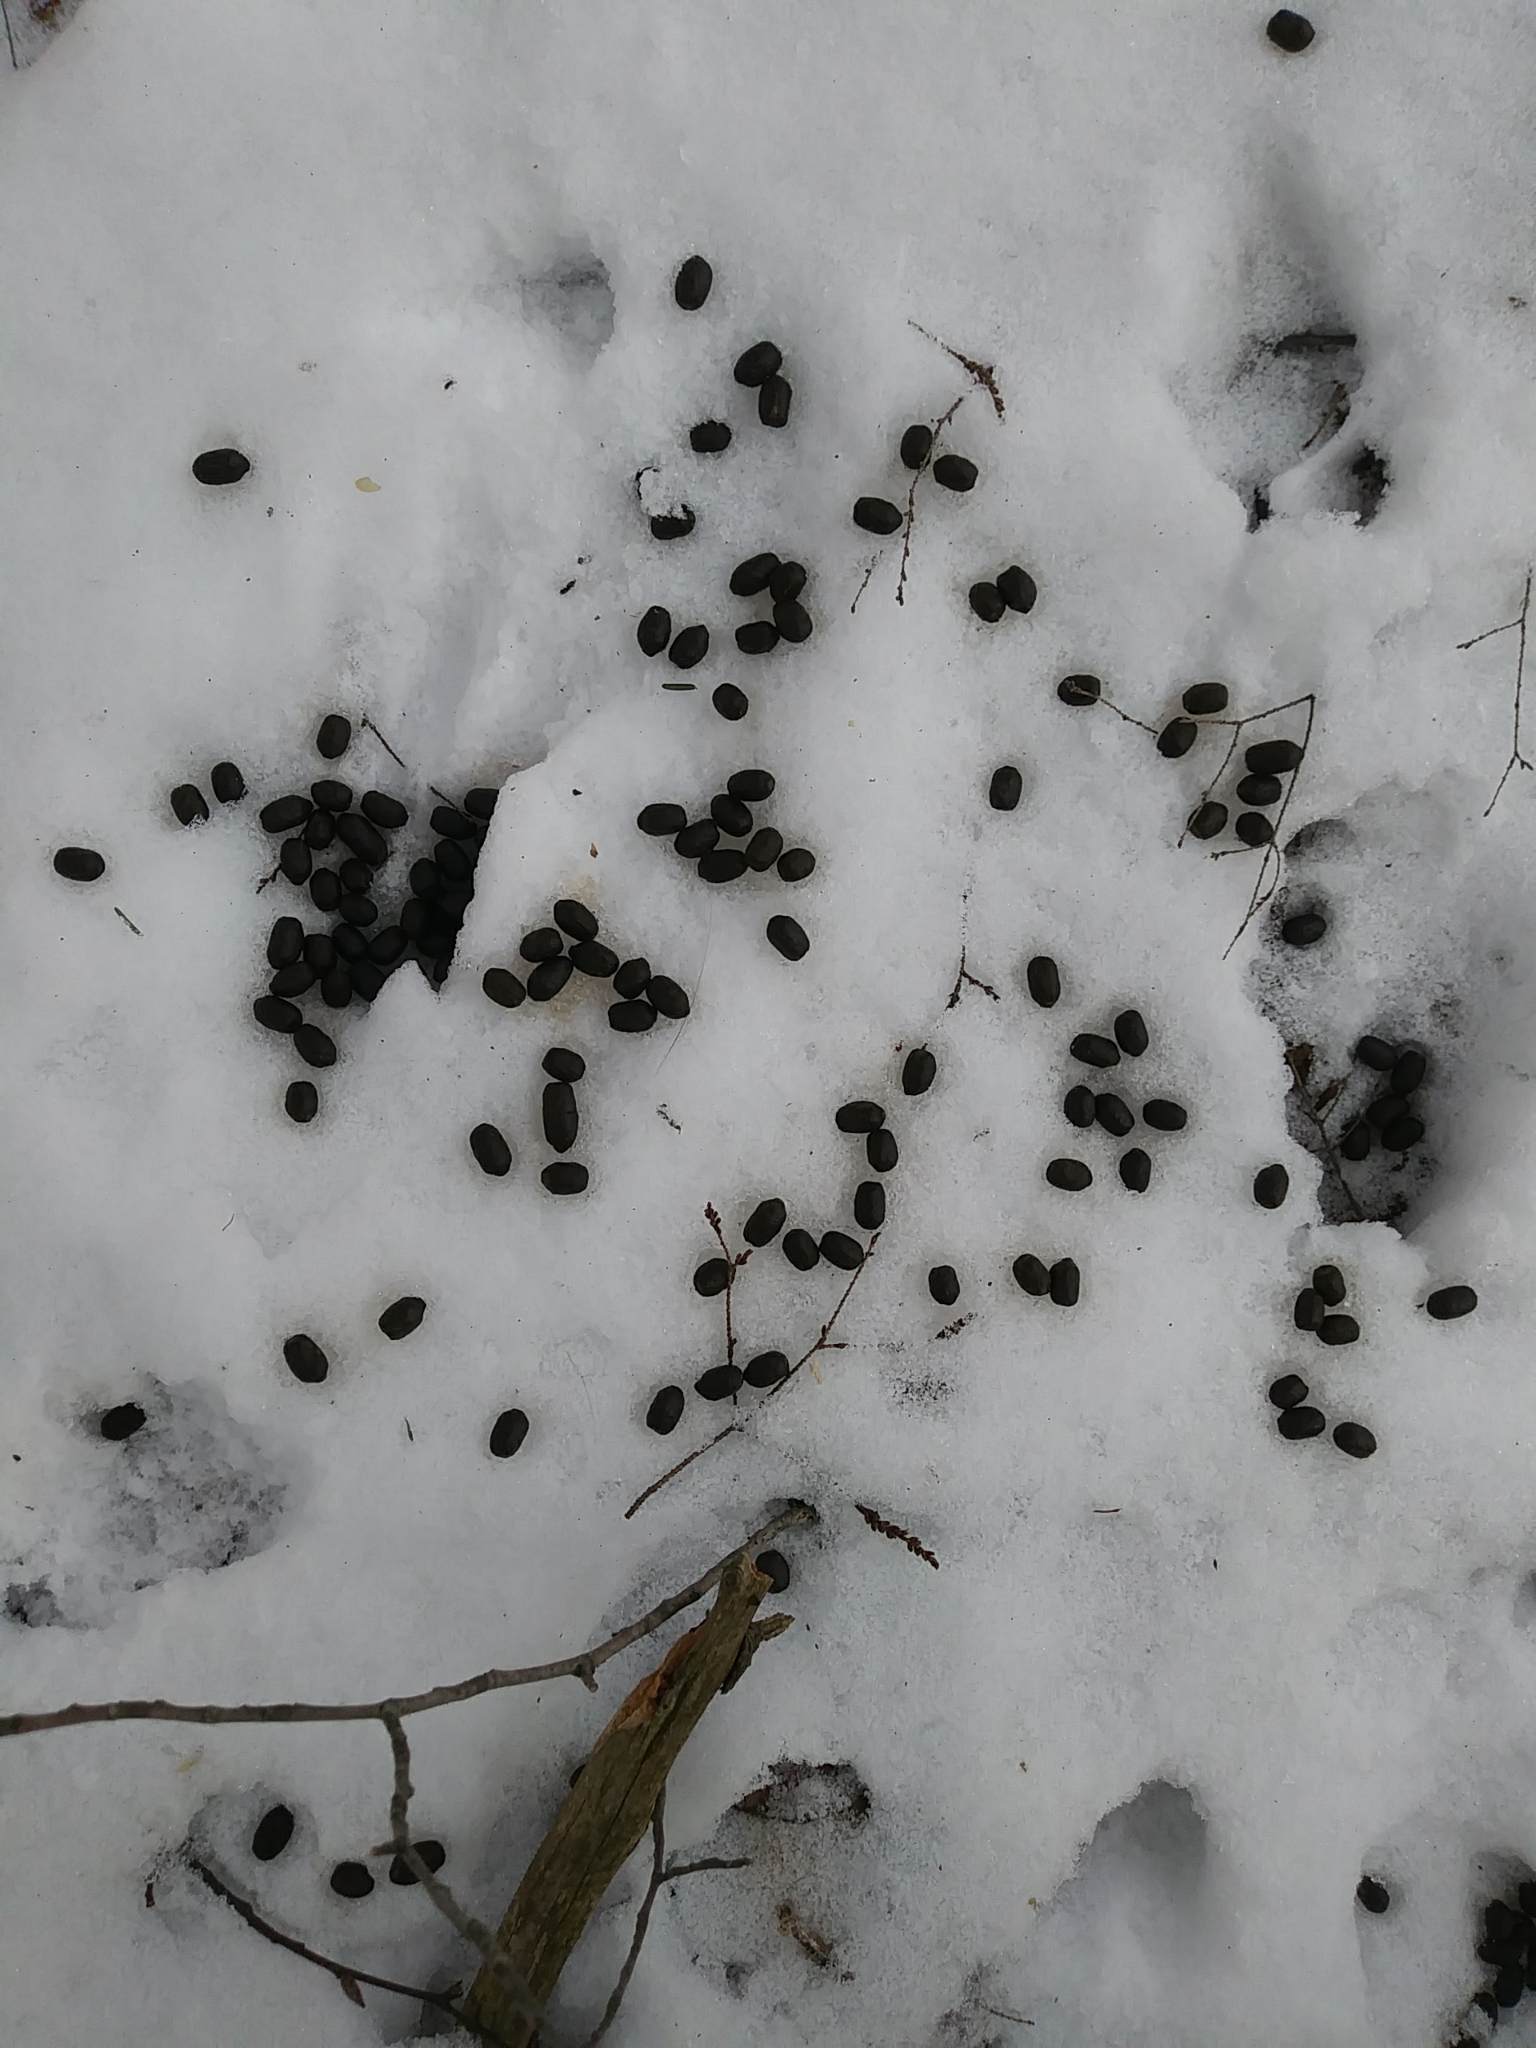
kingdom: Animalia
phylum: Chordata
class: Mammalia
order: Artiodactyla
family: Cervidae
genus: Odocoileus
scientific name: Odocoileus virginianus
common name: White-tailed deer
